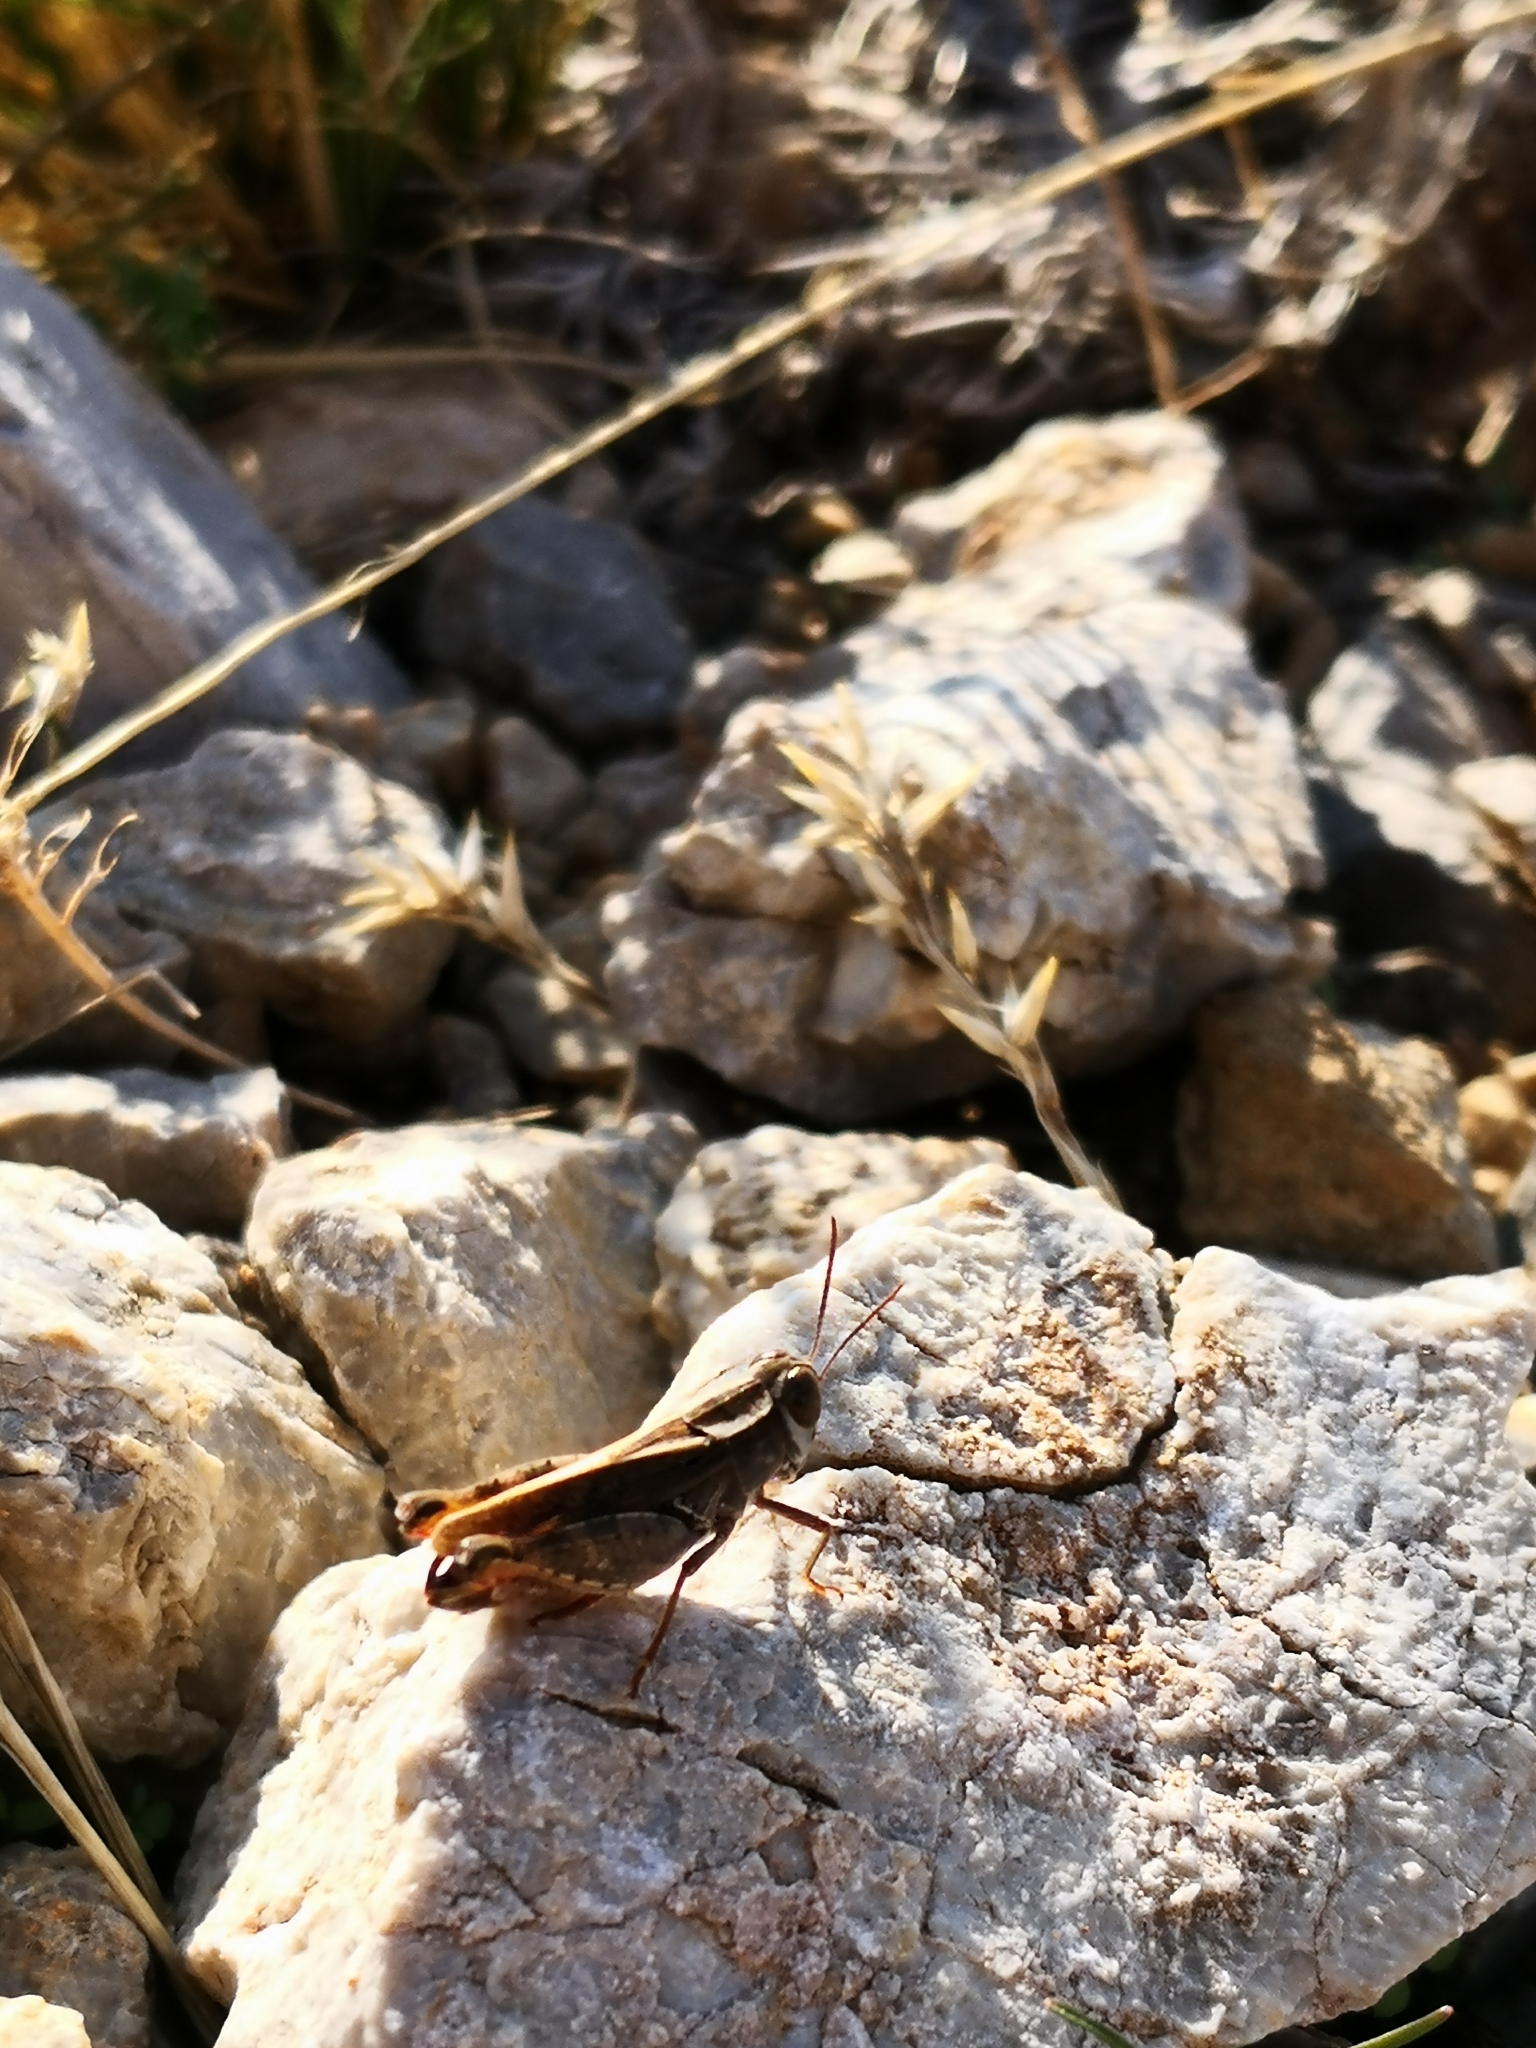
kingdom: Animalia
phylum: Arthropoda
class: Insecta
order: Orthoptera
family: Acrididae
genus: Calliptamus
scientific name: Calliptamus
